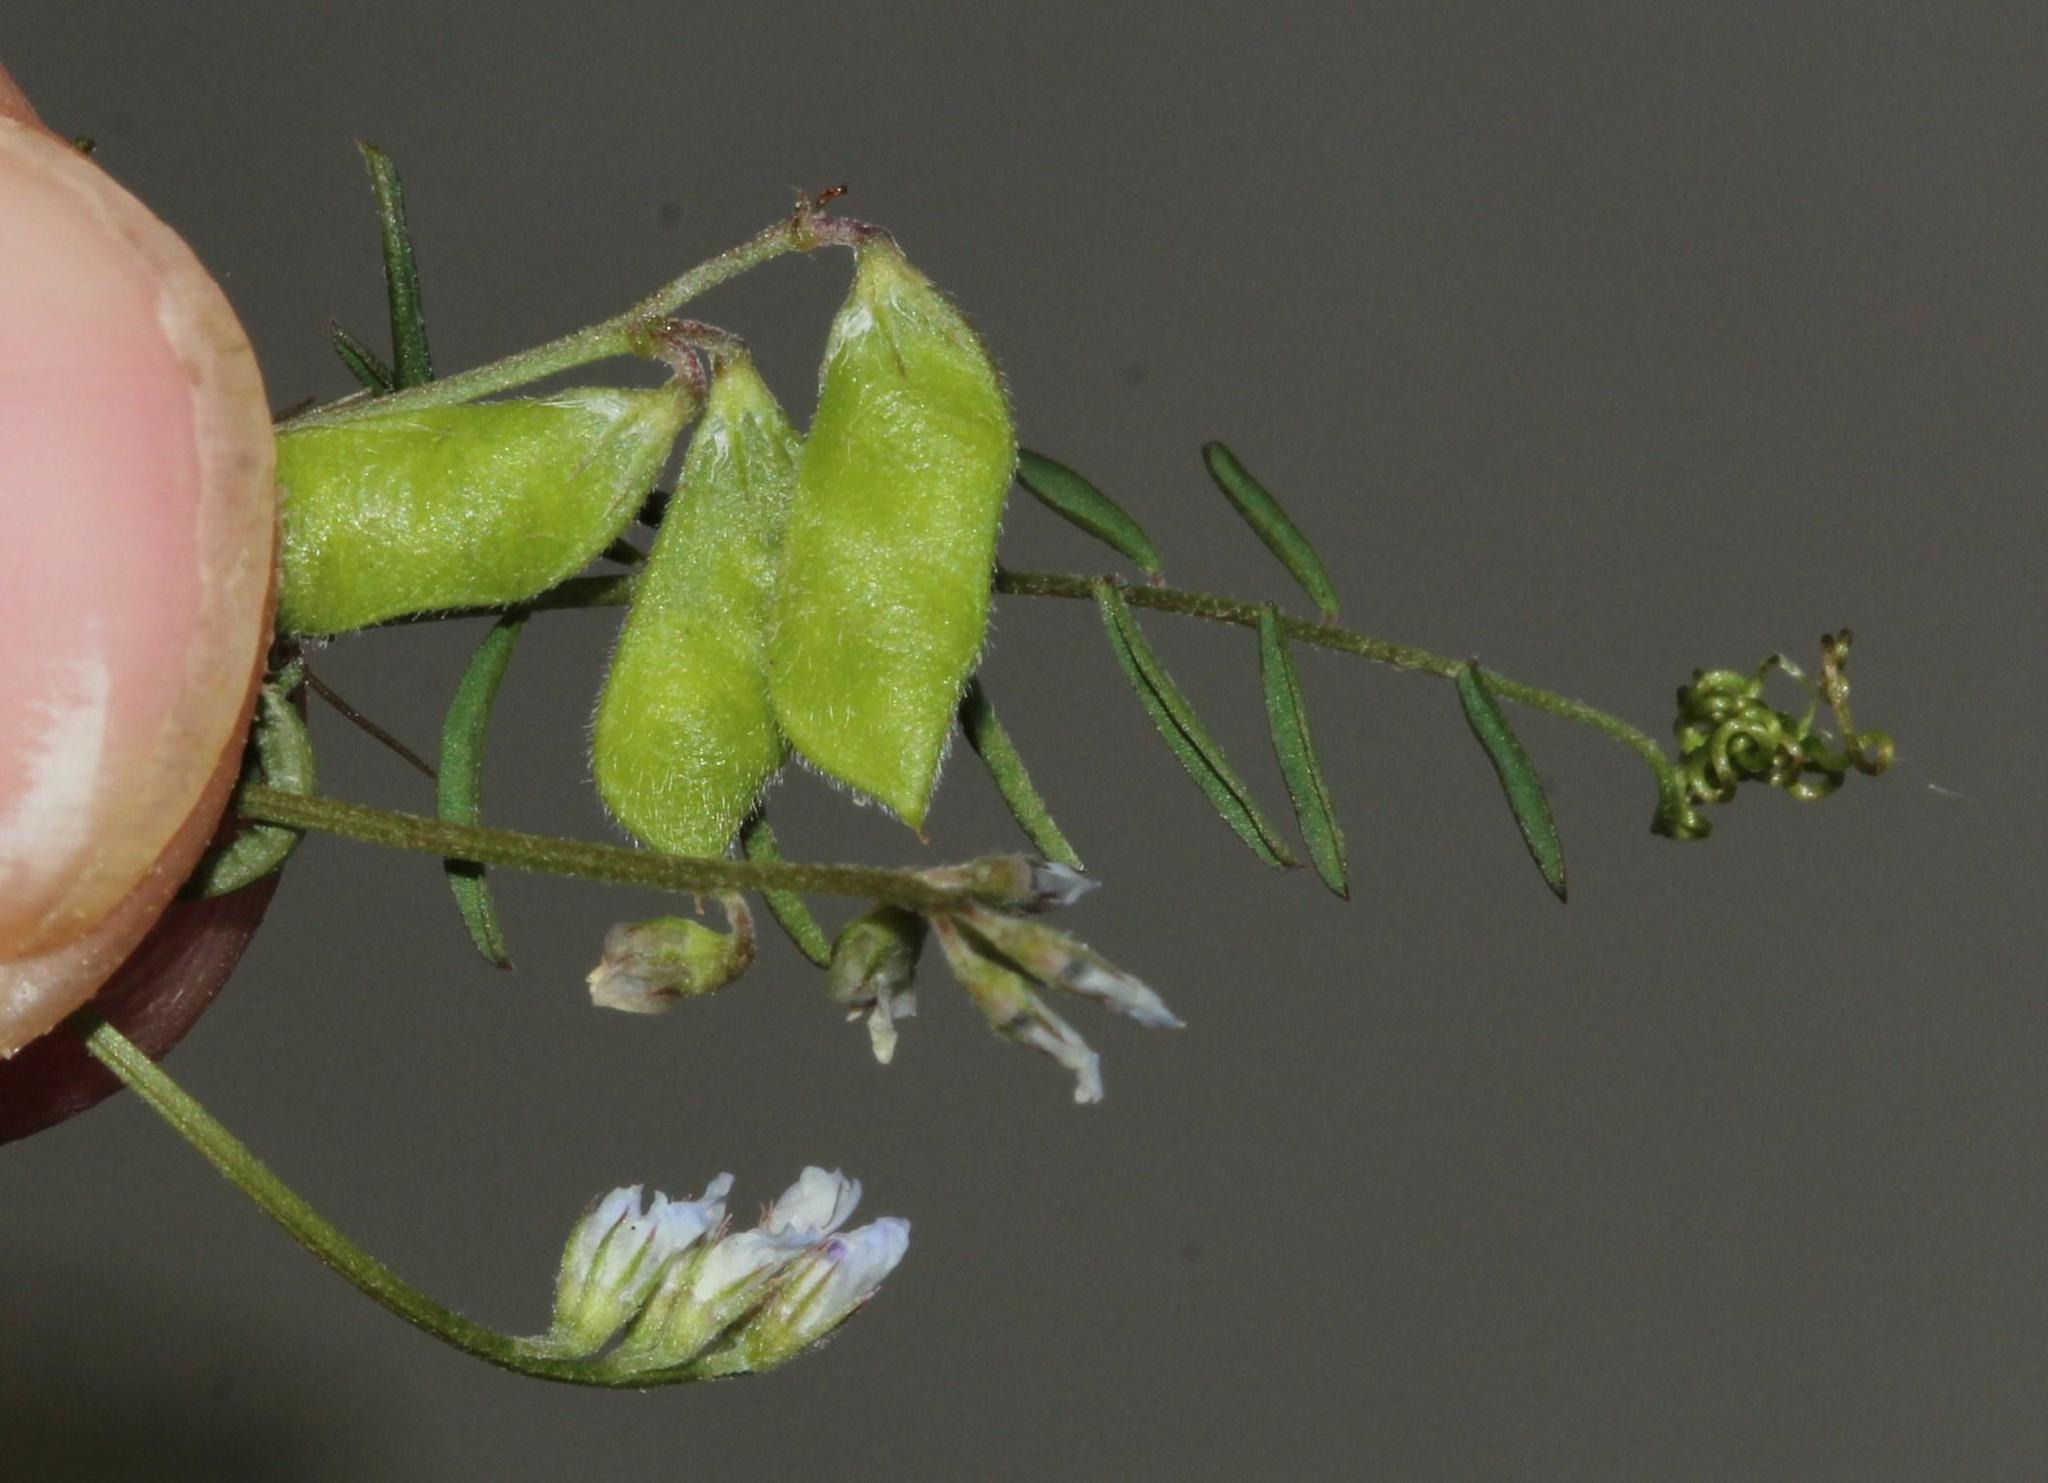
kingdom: Plantae
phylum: Tracheophyta
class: Magnoliopsida
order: Fabales
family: Fabaceae
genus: Vicia
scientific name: Vicia hirsuta
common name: Tiny vetch
